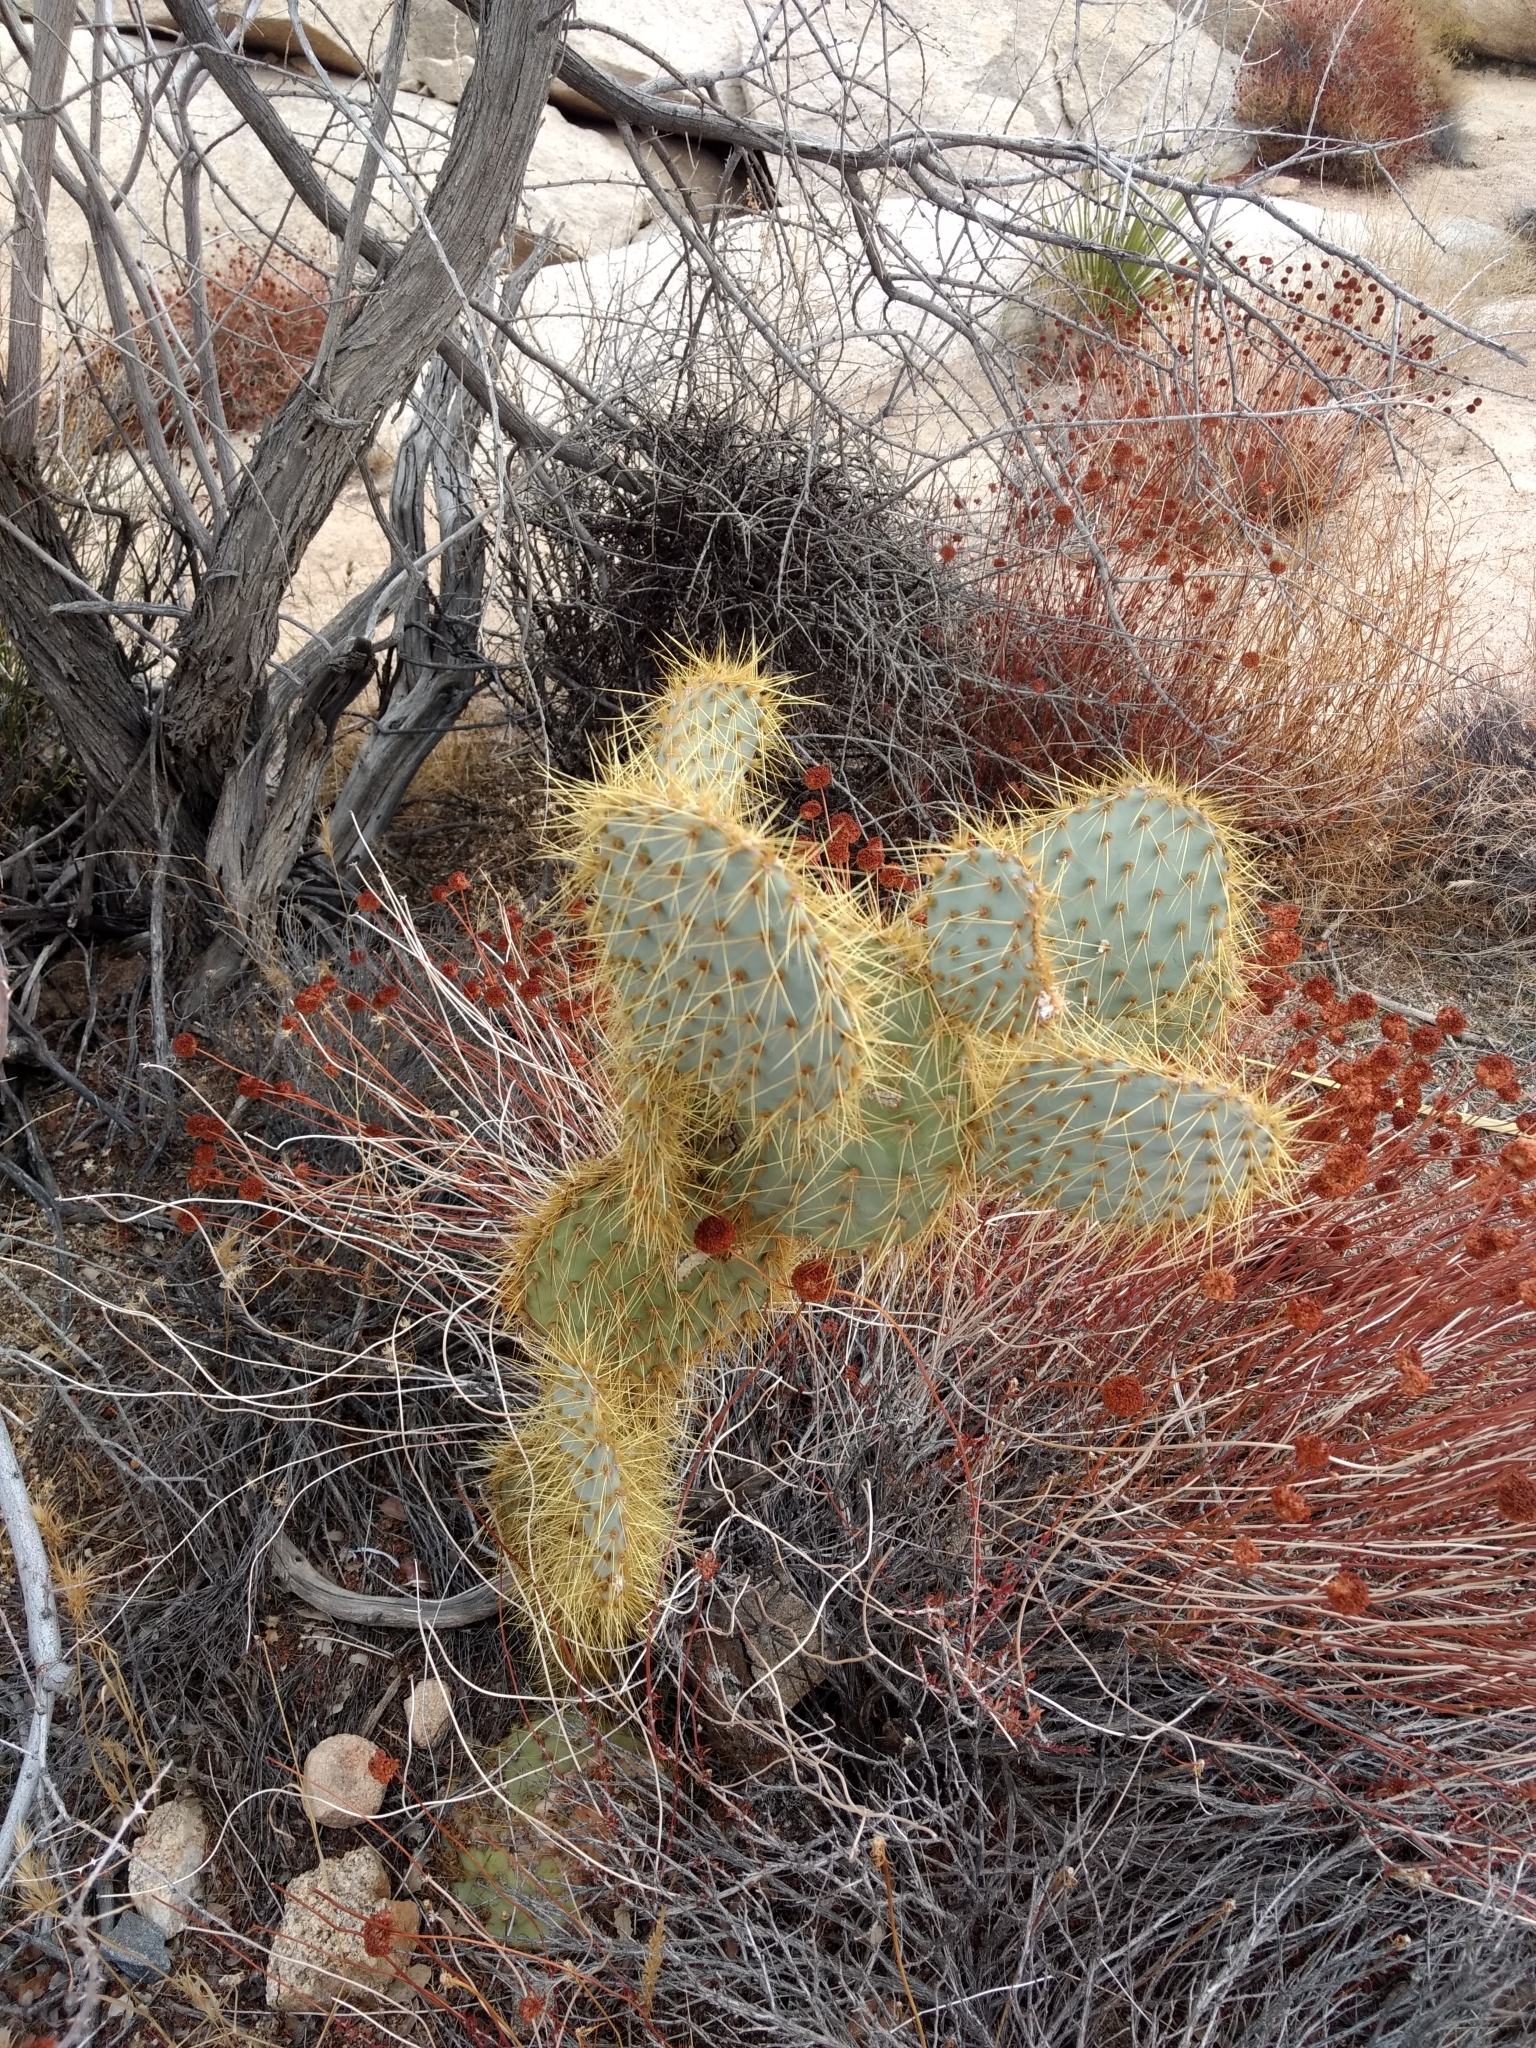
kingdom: Plantae
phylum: Tracheophyta
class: Magnoliopsida
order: Caryophyllales
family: Cactaceae
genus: Opuntia
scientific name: Opuntia chlorotica
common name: Dollar-joint prickly-pear
